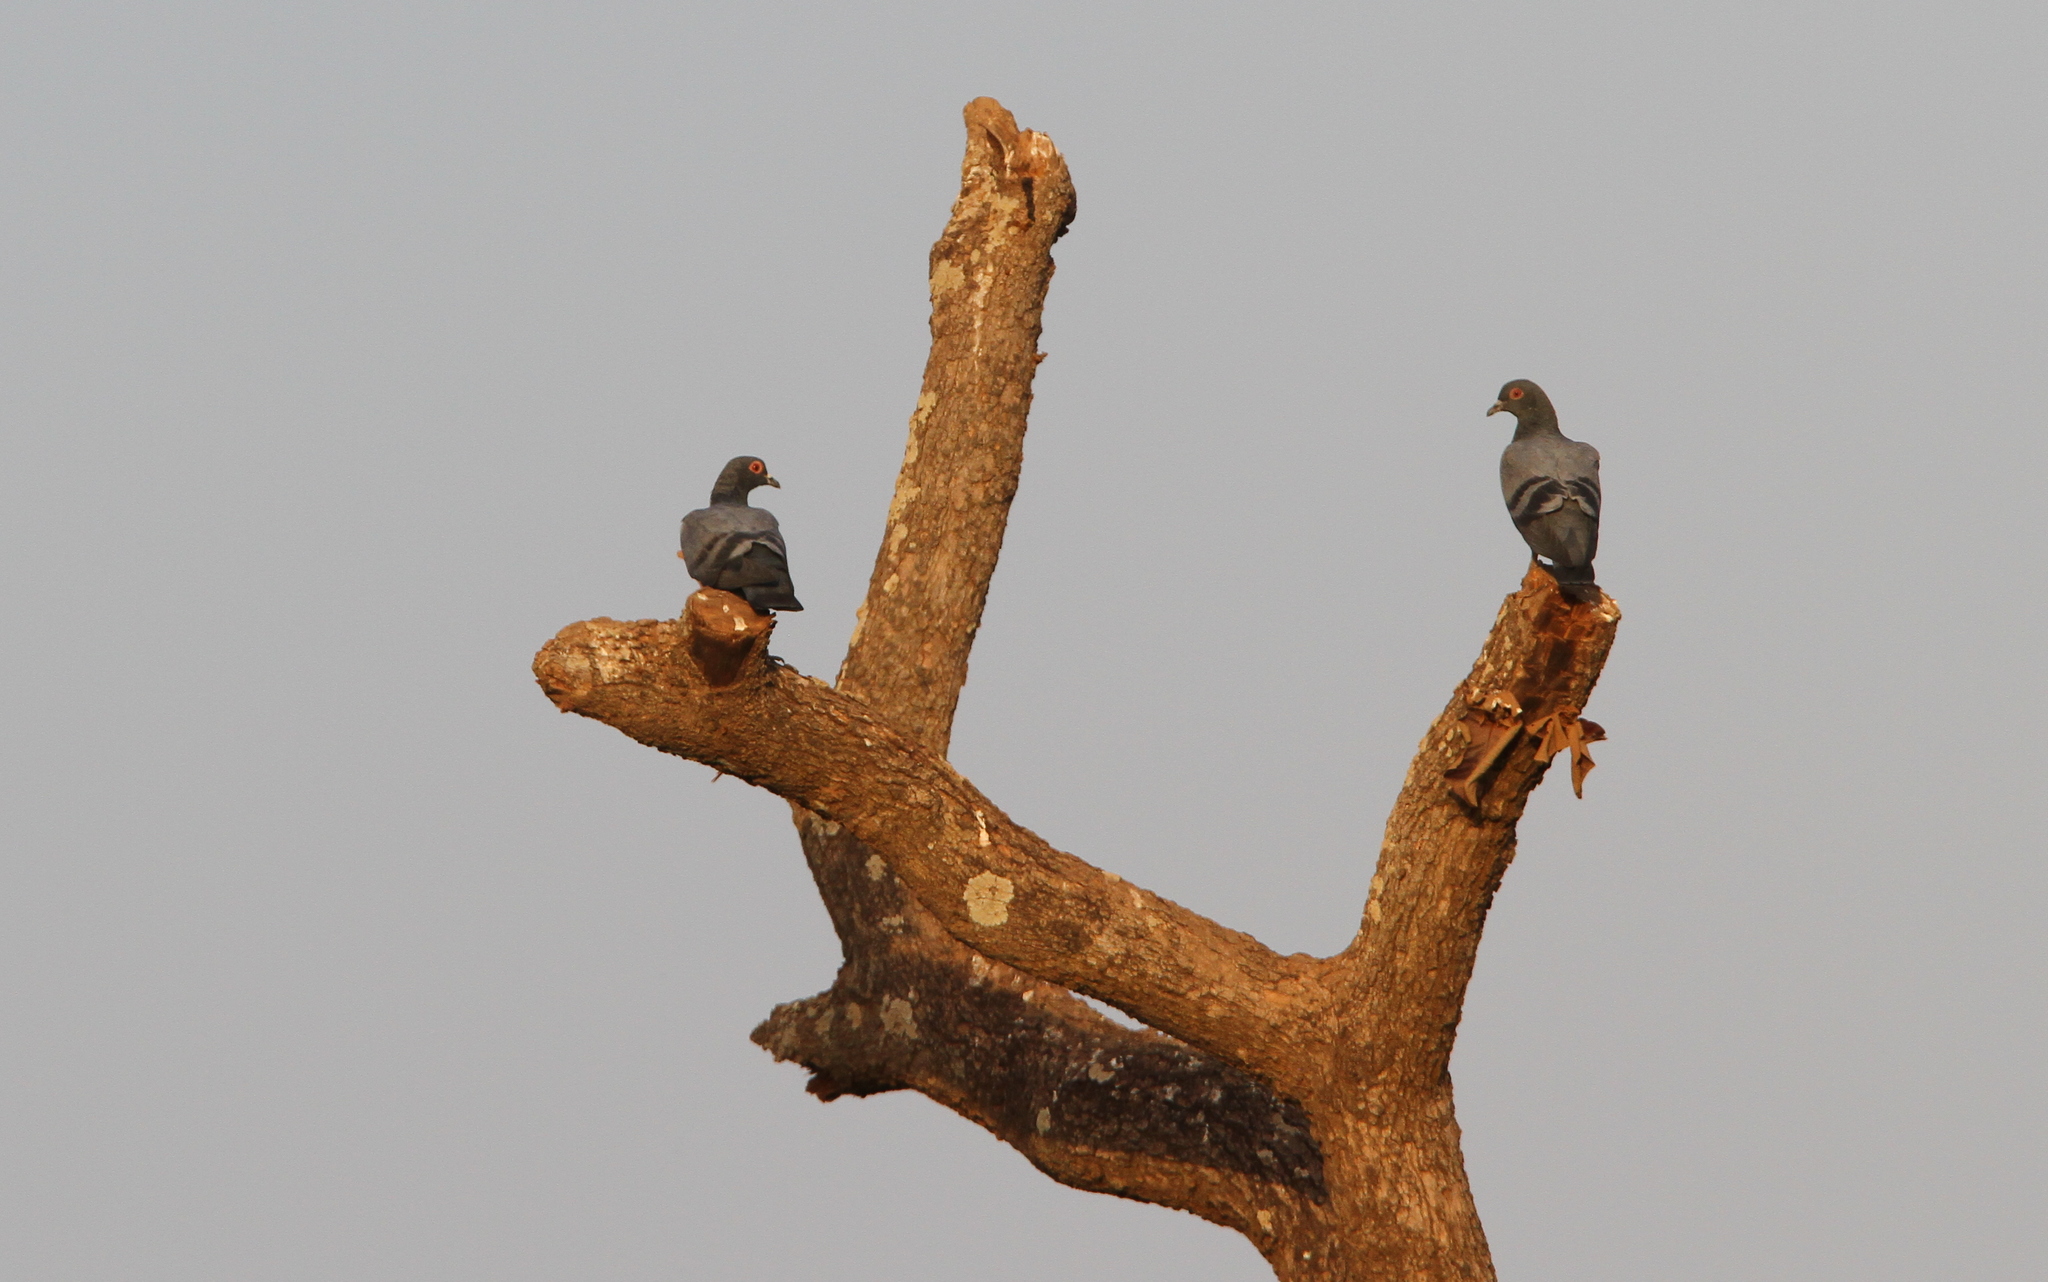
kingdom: Animalia
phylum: Chordata
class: Aves
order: Columbiformes
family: Columbidae
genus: Columba
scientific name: Columba livia
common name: Rock pigeon
